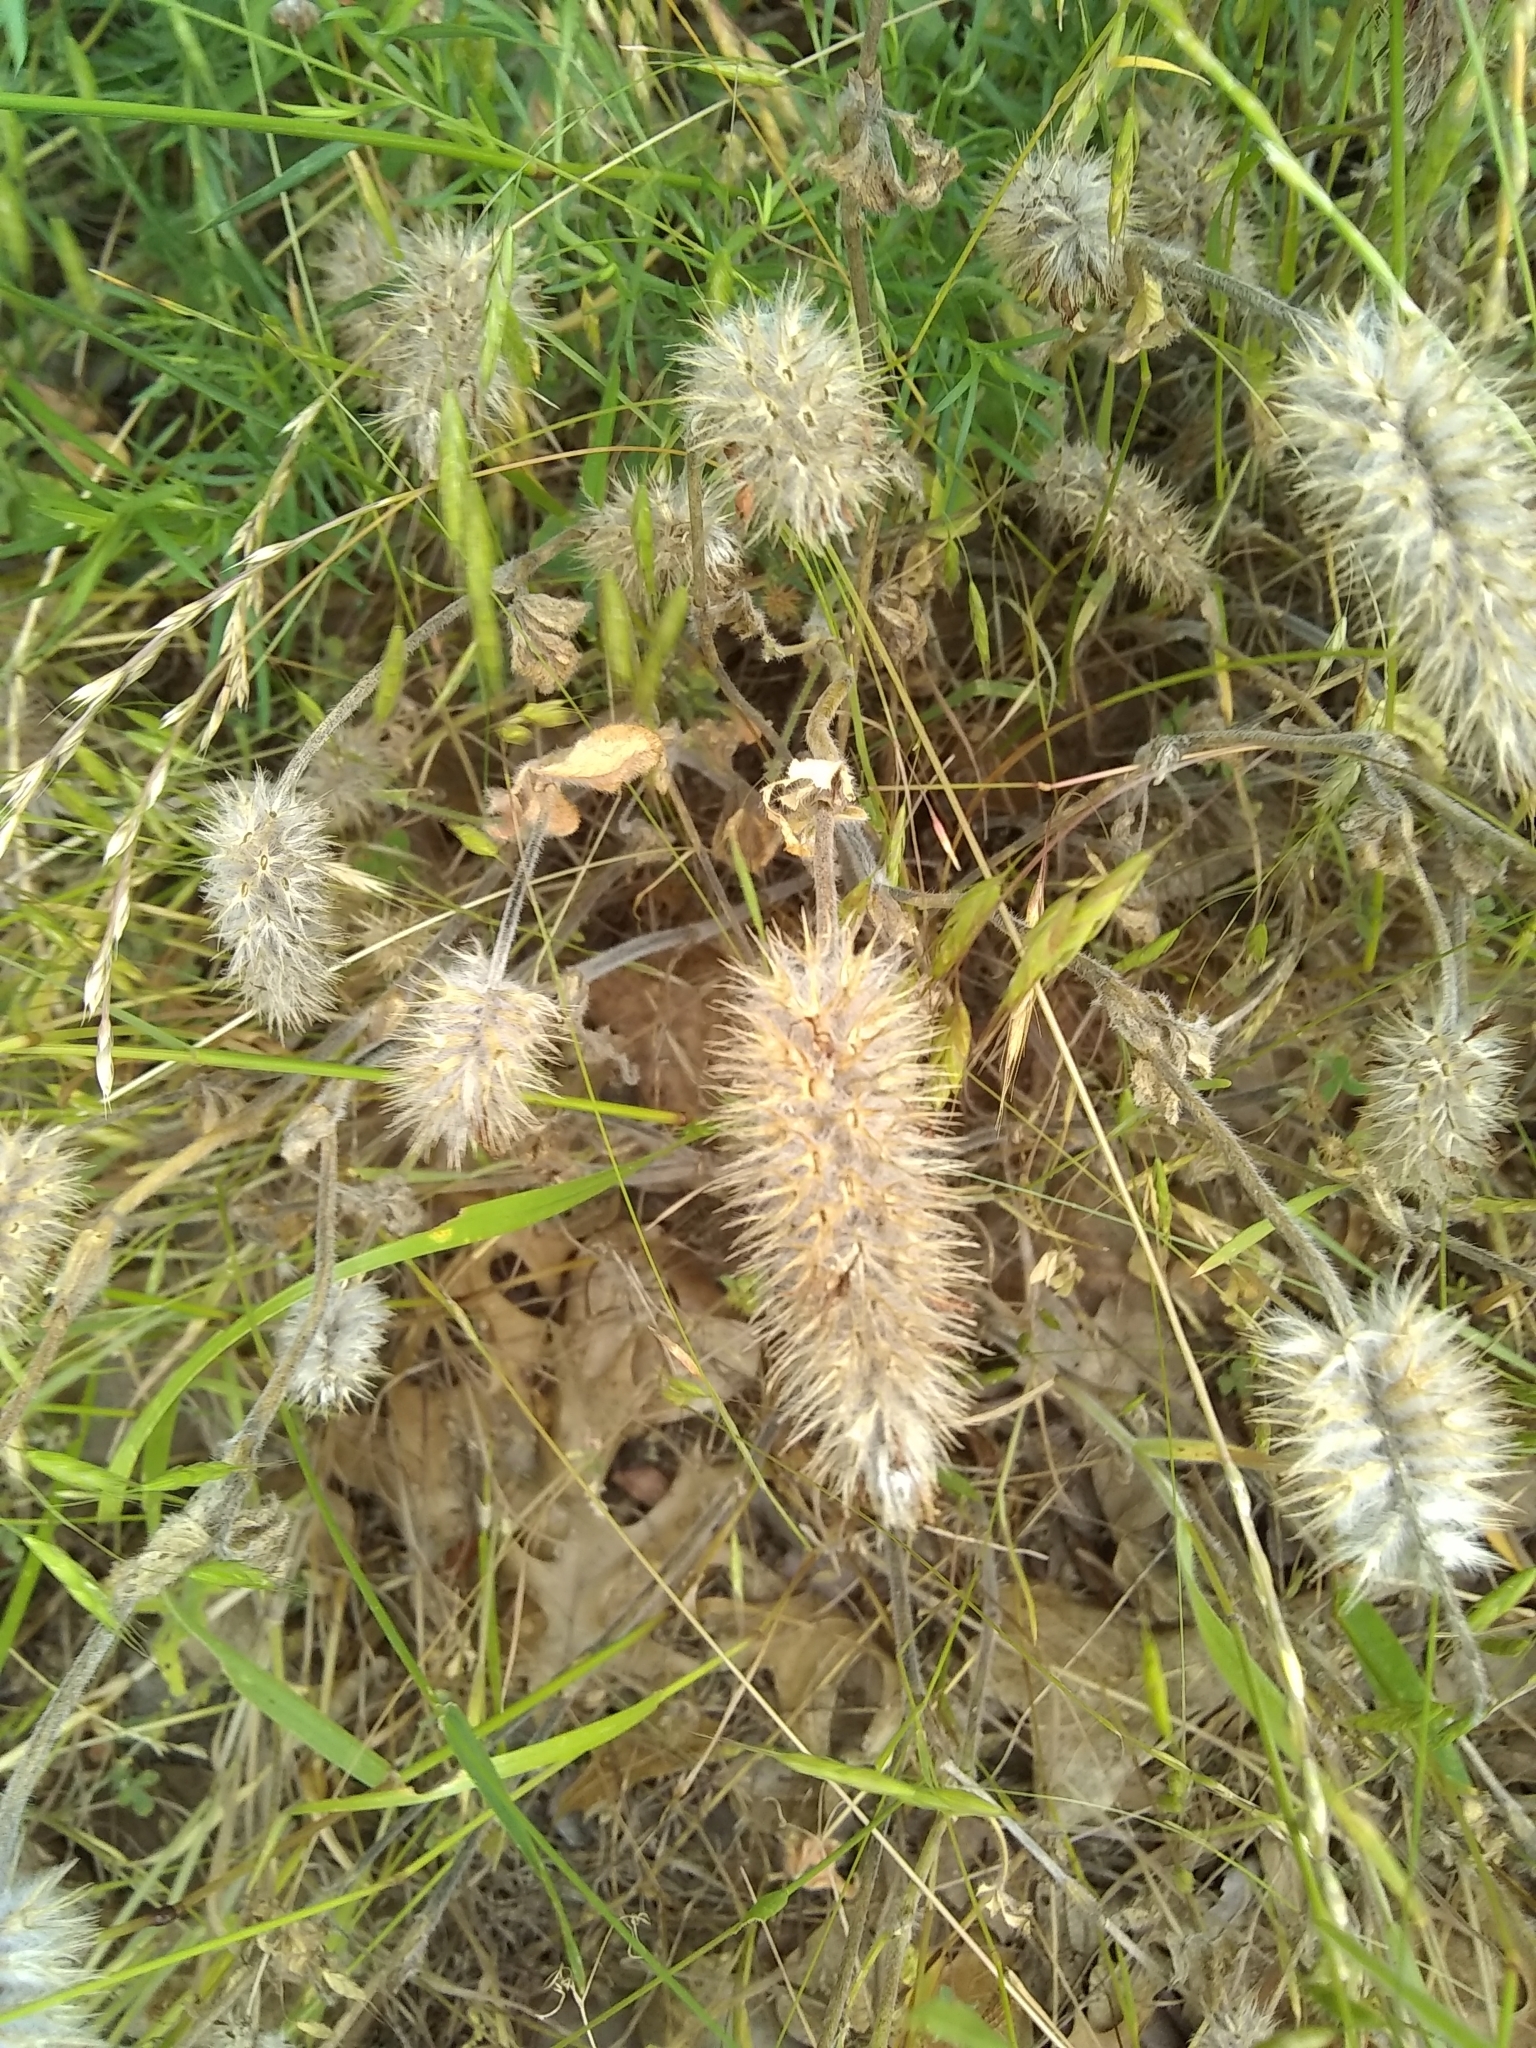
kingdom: Plantae
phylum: Tracheophyta
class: Magnoliopsida
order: Fabales
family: Fabaceae
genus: Trifolium
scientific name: Trifolium arvense
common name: Hare's-foot clover
